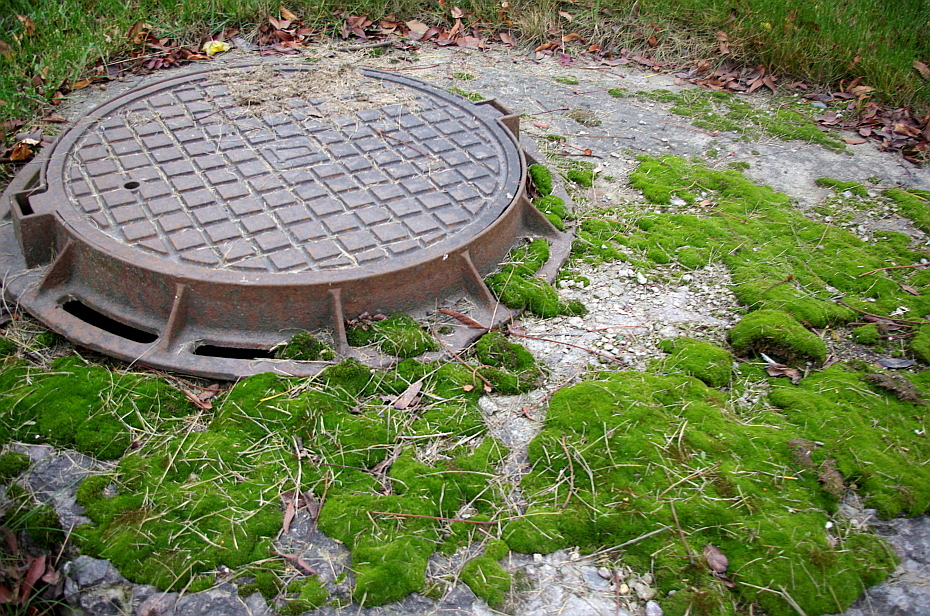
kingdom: Plantae
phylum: Bryophyta
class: Bryopsida
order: Dicranales
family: Ditrichaceae
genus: Ceratodon
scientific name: Ceratodon purpureus
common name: Redshank
